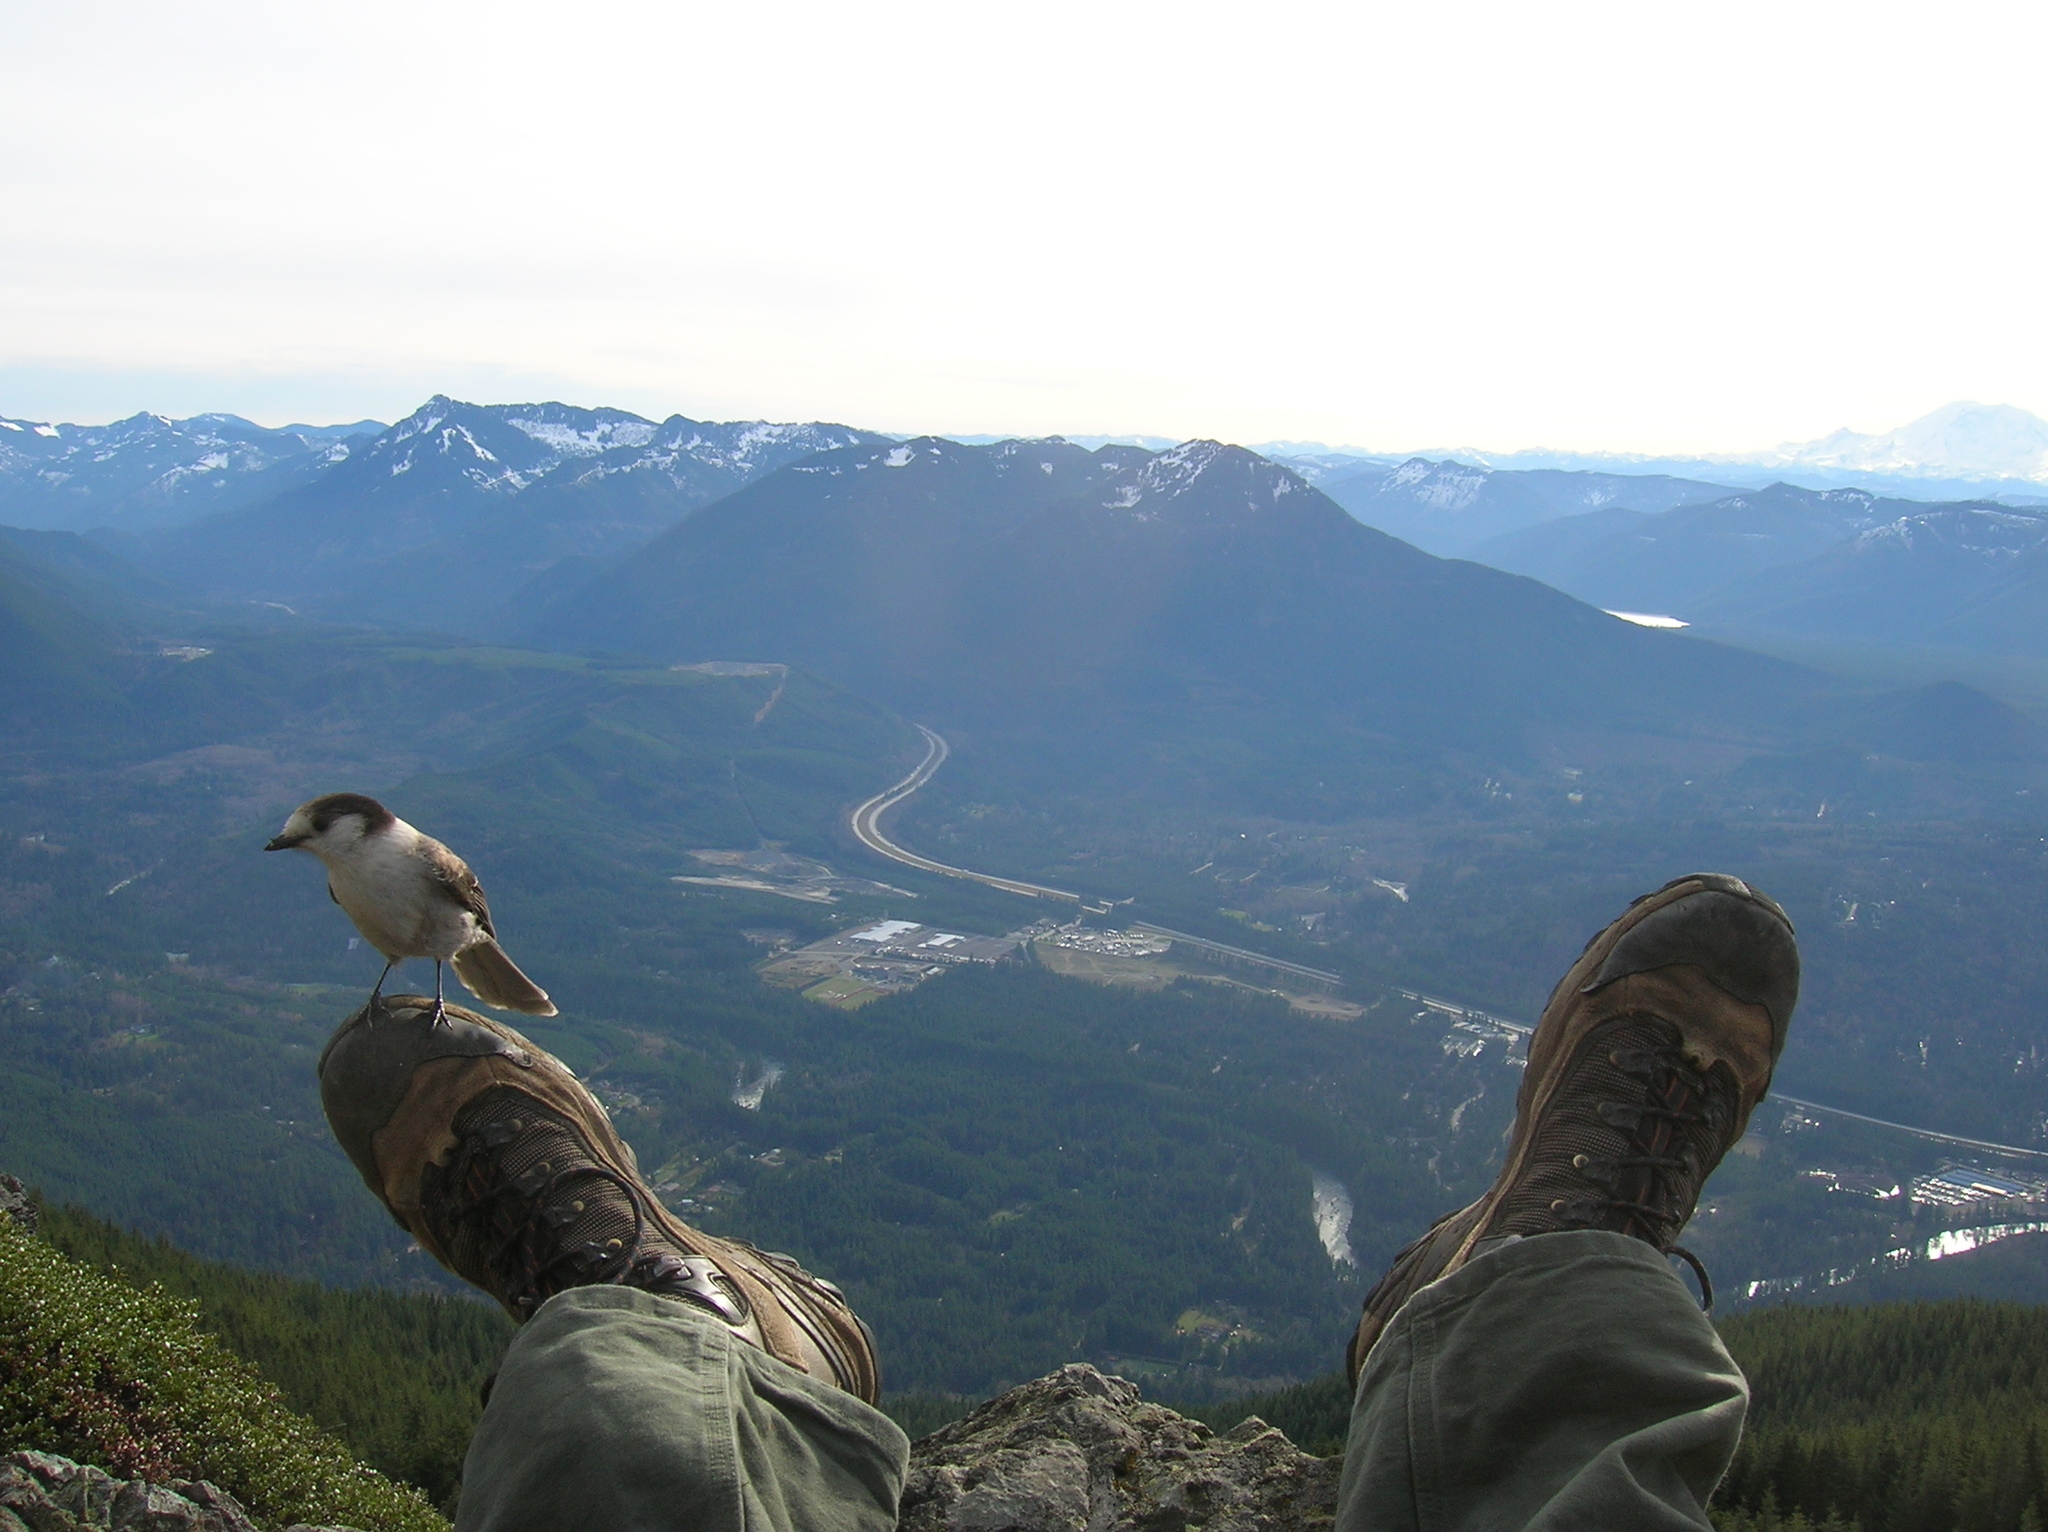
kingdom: Animalia
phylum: Chordata
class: Aves
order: Passeriformes
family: Corvidae
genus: Perisoreus
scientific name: Perisoreus canadensis
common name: Gray jay
